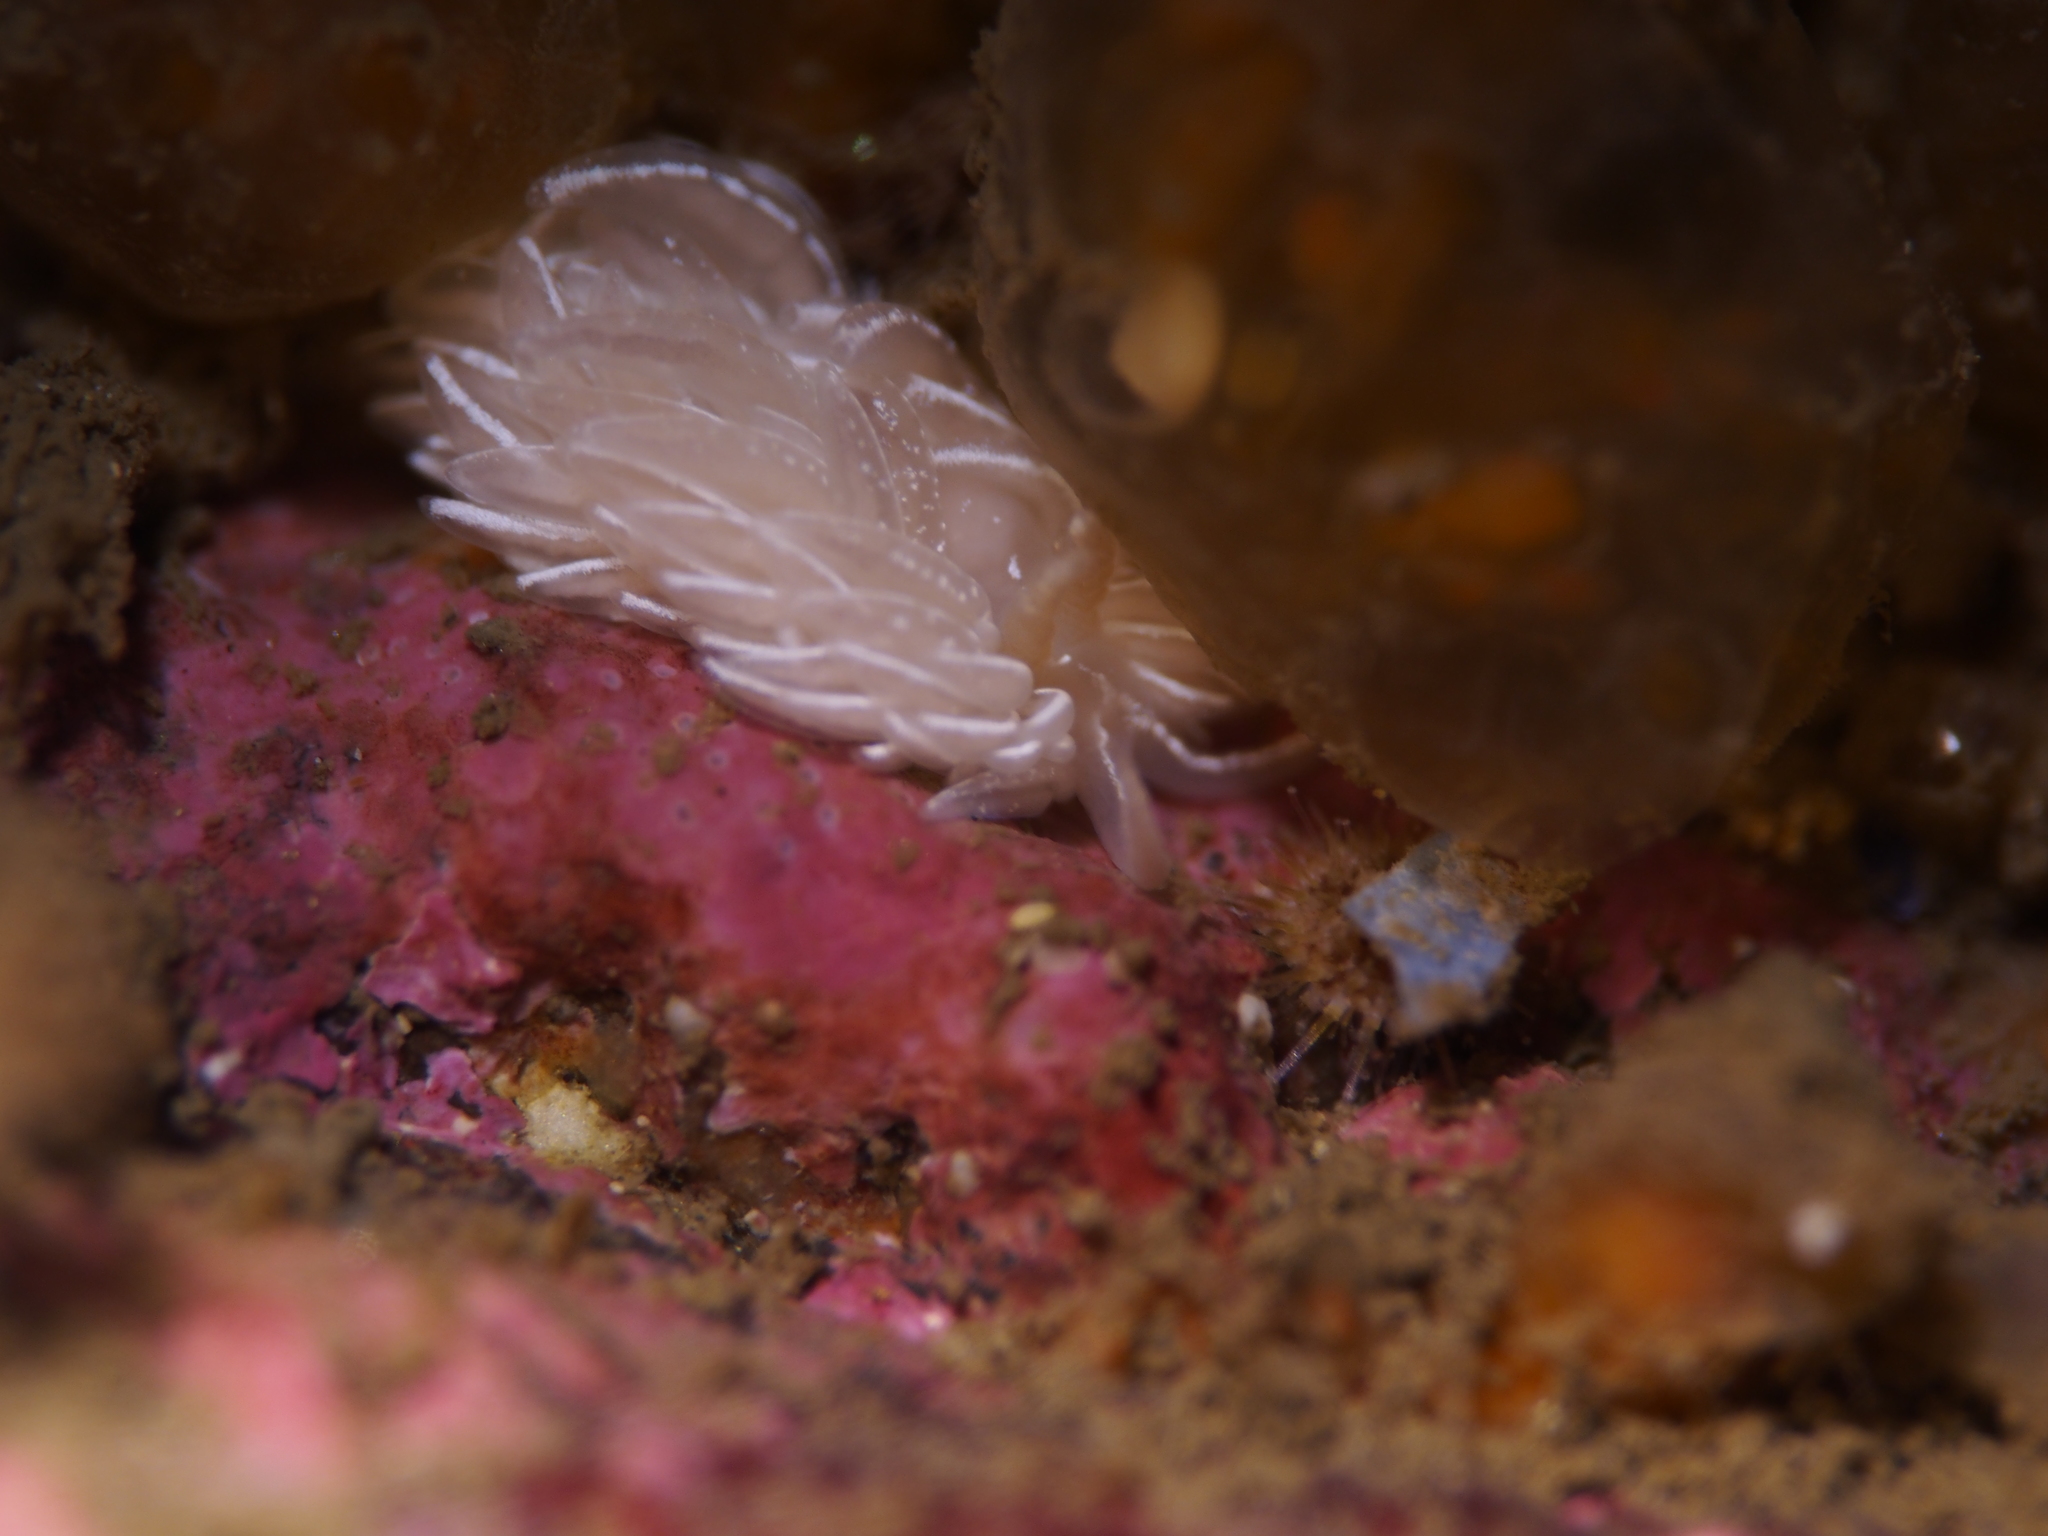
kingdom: Animalia
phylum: Mollusca
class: Gastropoda
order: Nudibranchia
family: Facelinidae
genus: Favorinus
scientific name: Favorinus blianus
